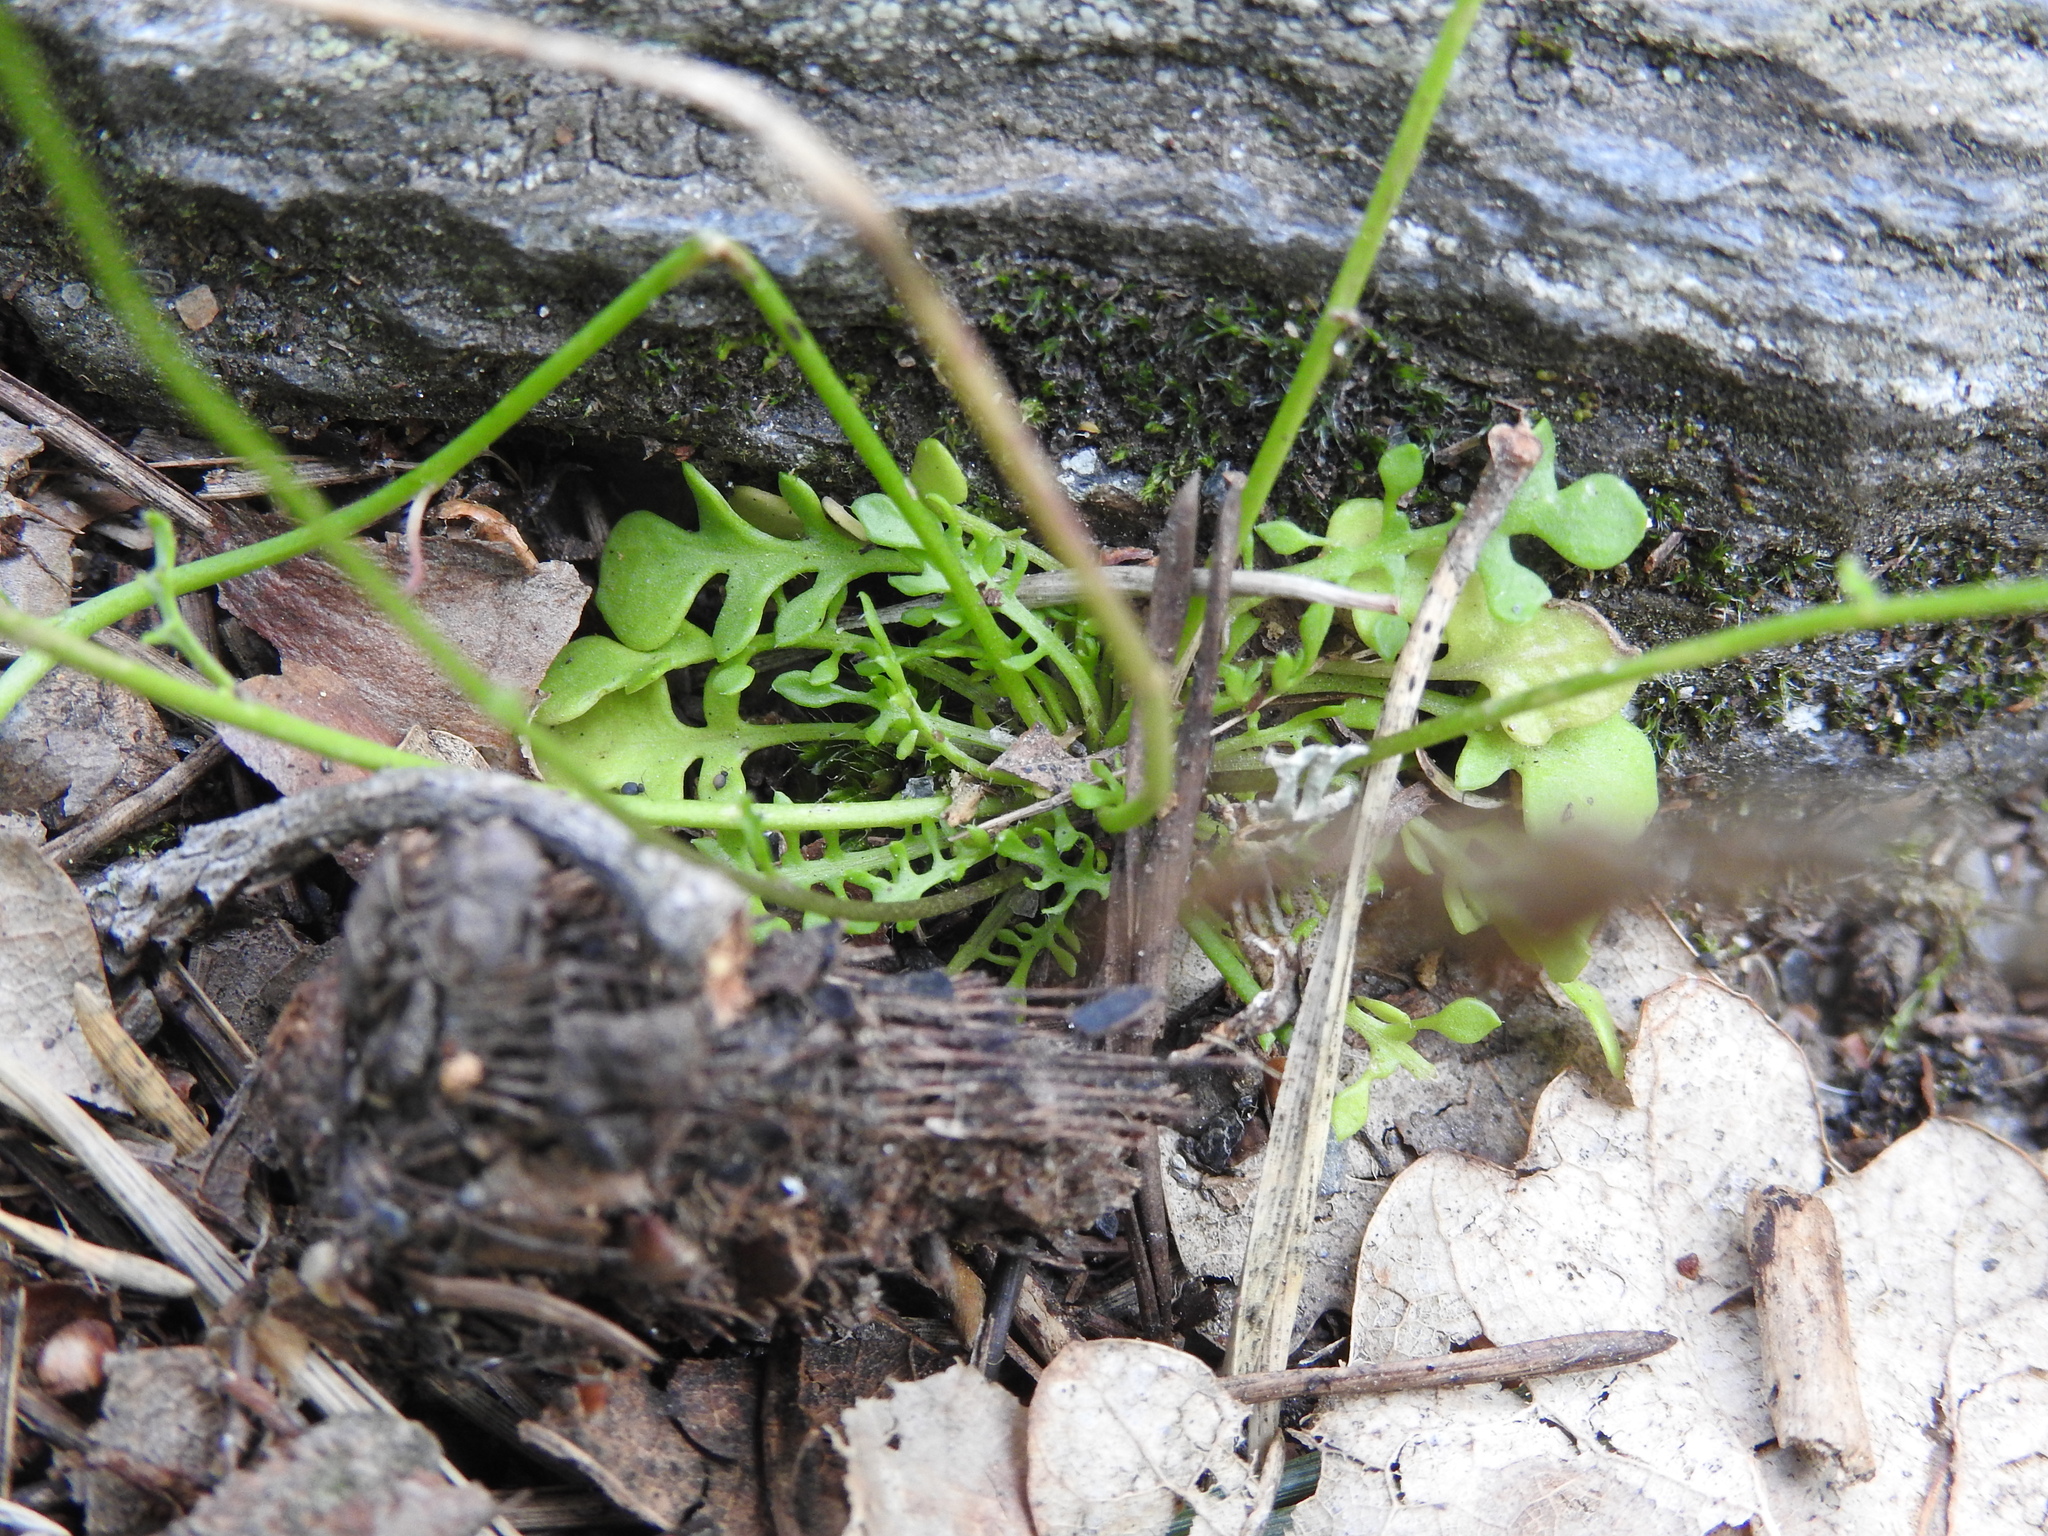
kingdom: Plantae
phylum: Tracheophyta
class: Magnoliopsida
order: Brassicales
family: Brassicaceae
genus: Teesdalia
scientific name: Teesdalia nudicaulis
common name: Shepherd's cress
